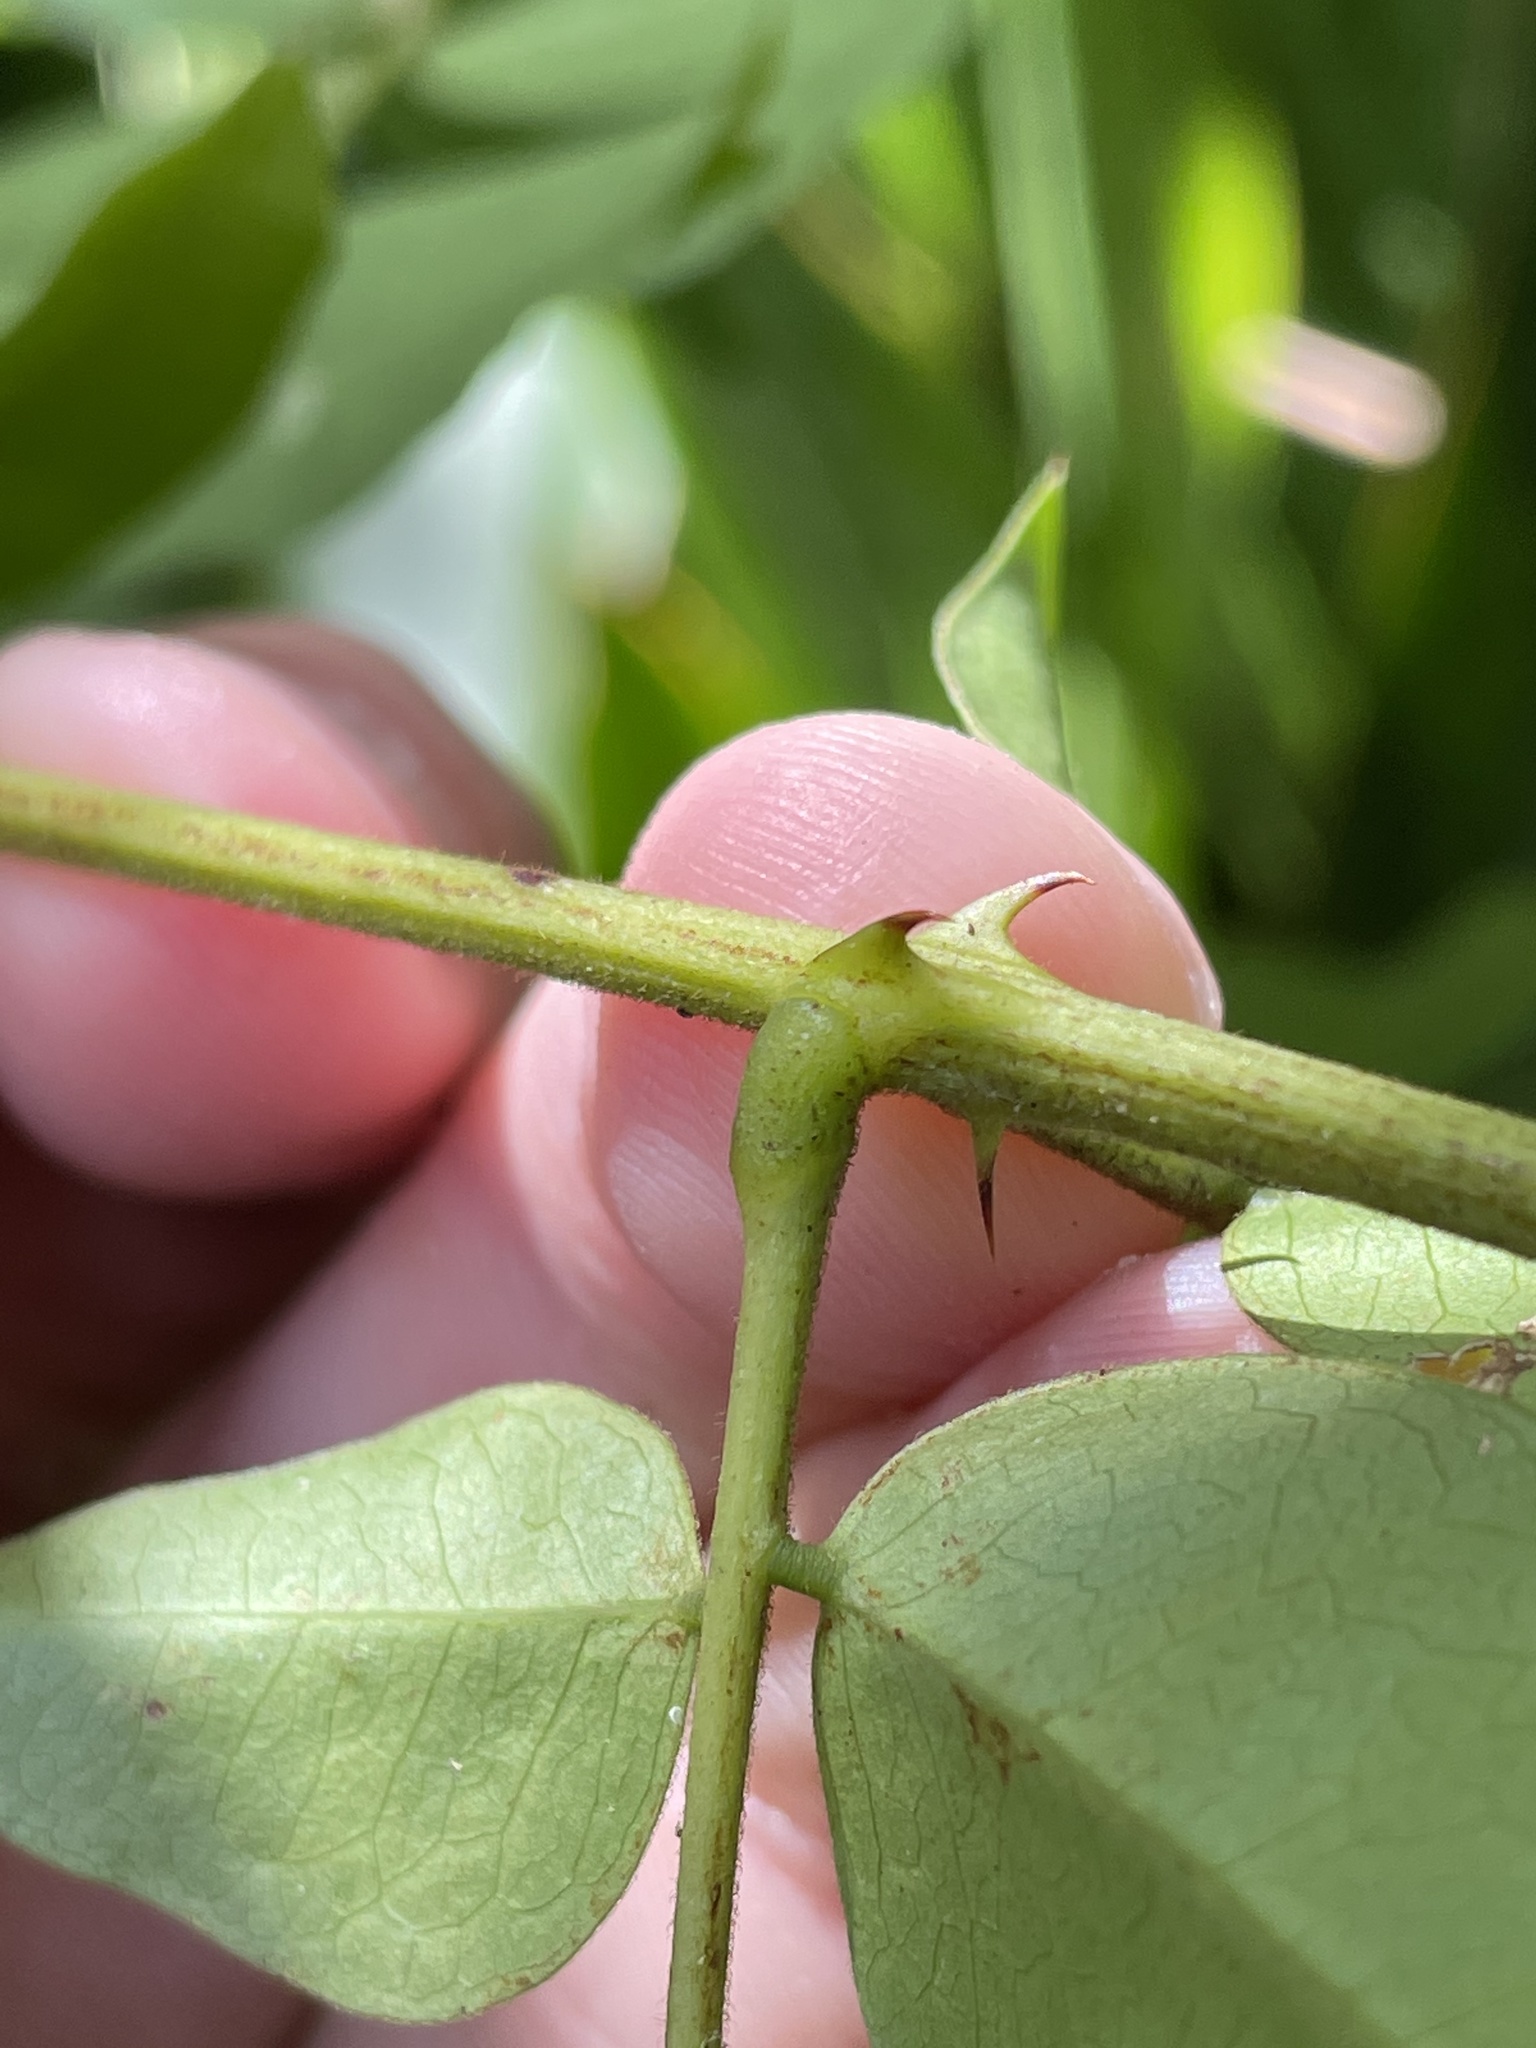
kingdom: Plantae
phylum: Tracheophyta
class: Magnoliopsida
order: Fabales
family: Fabaceae
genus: Guilandina
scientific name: Guilandina bonduc
